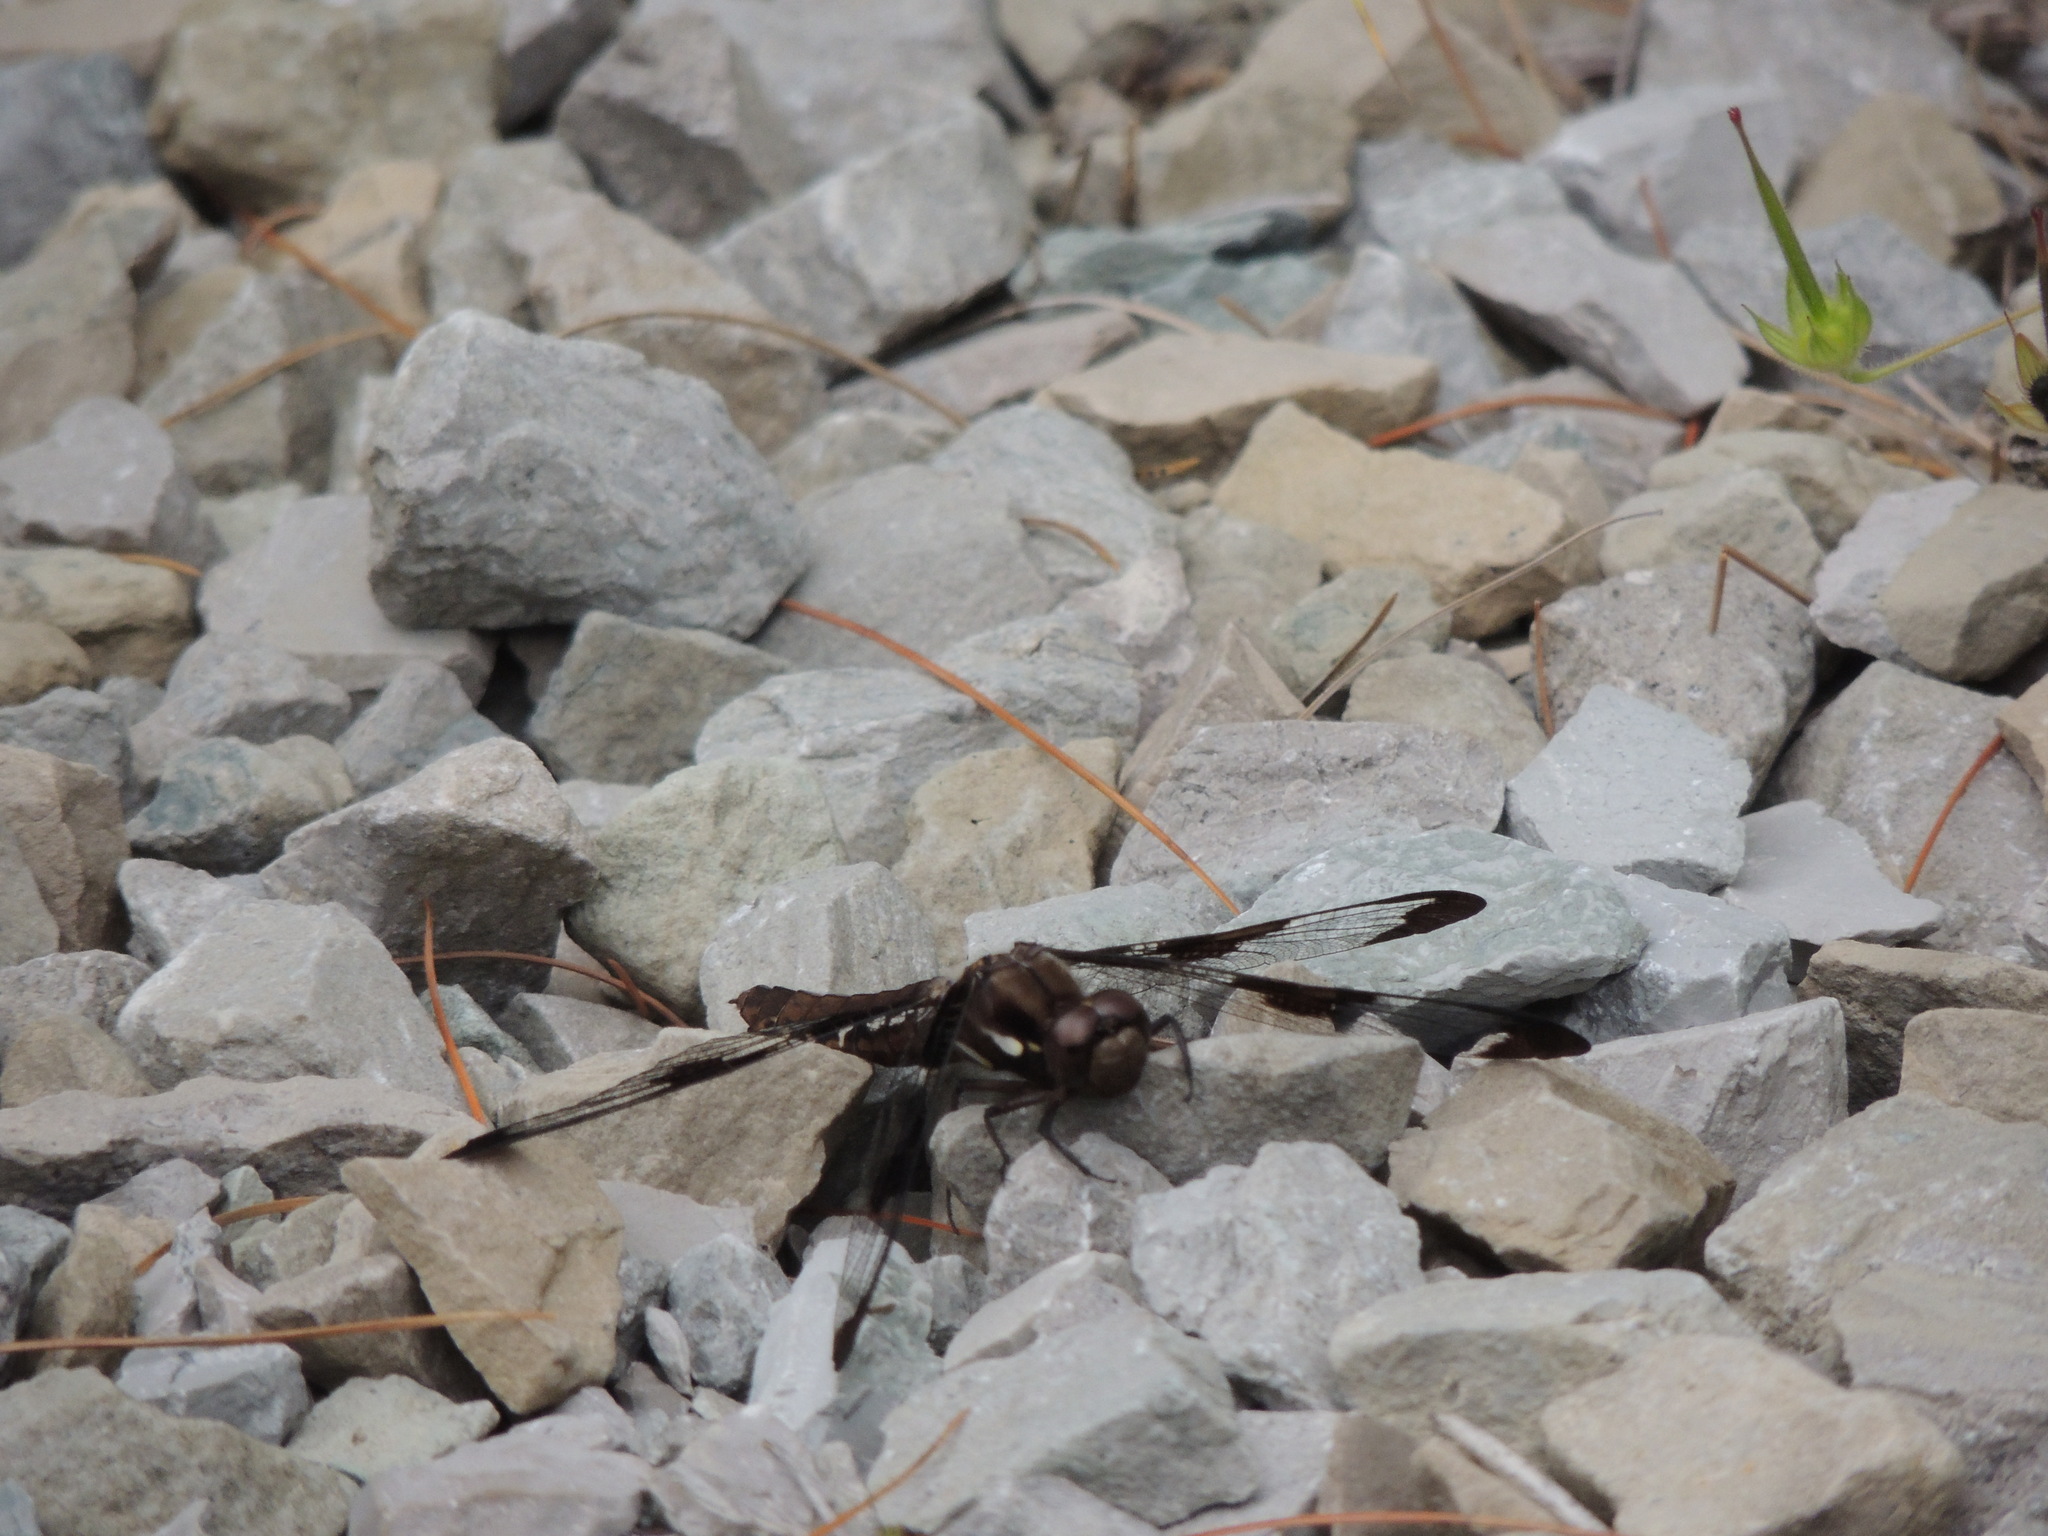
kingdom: Animalia
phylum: Arthropoda
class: Insecta
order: Odonata
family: Libellulidae
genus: Plathemis
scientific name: Plathemis lydia
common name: Common whitetail
